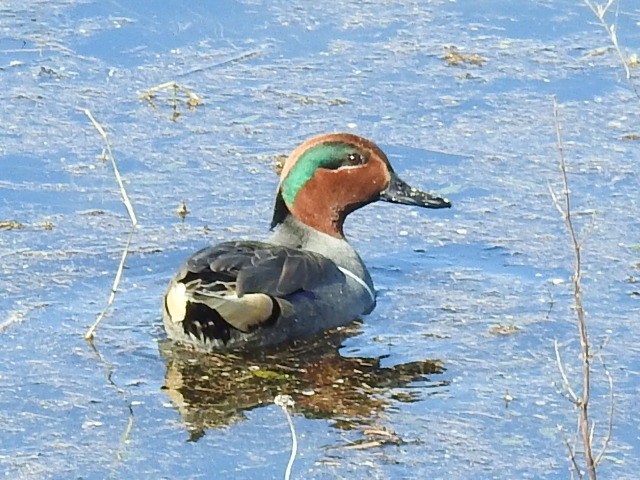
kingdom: Animalia
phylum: Chordata
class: Aves
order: Anseriformes
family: Anatidae
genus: Anas
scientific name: Anas crecca
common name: Eurasian teal
